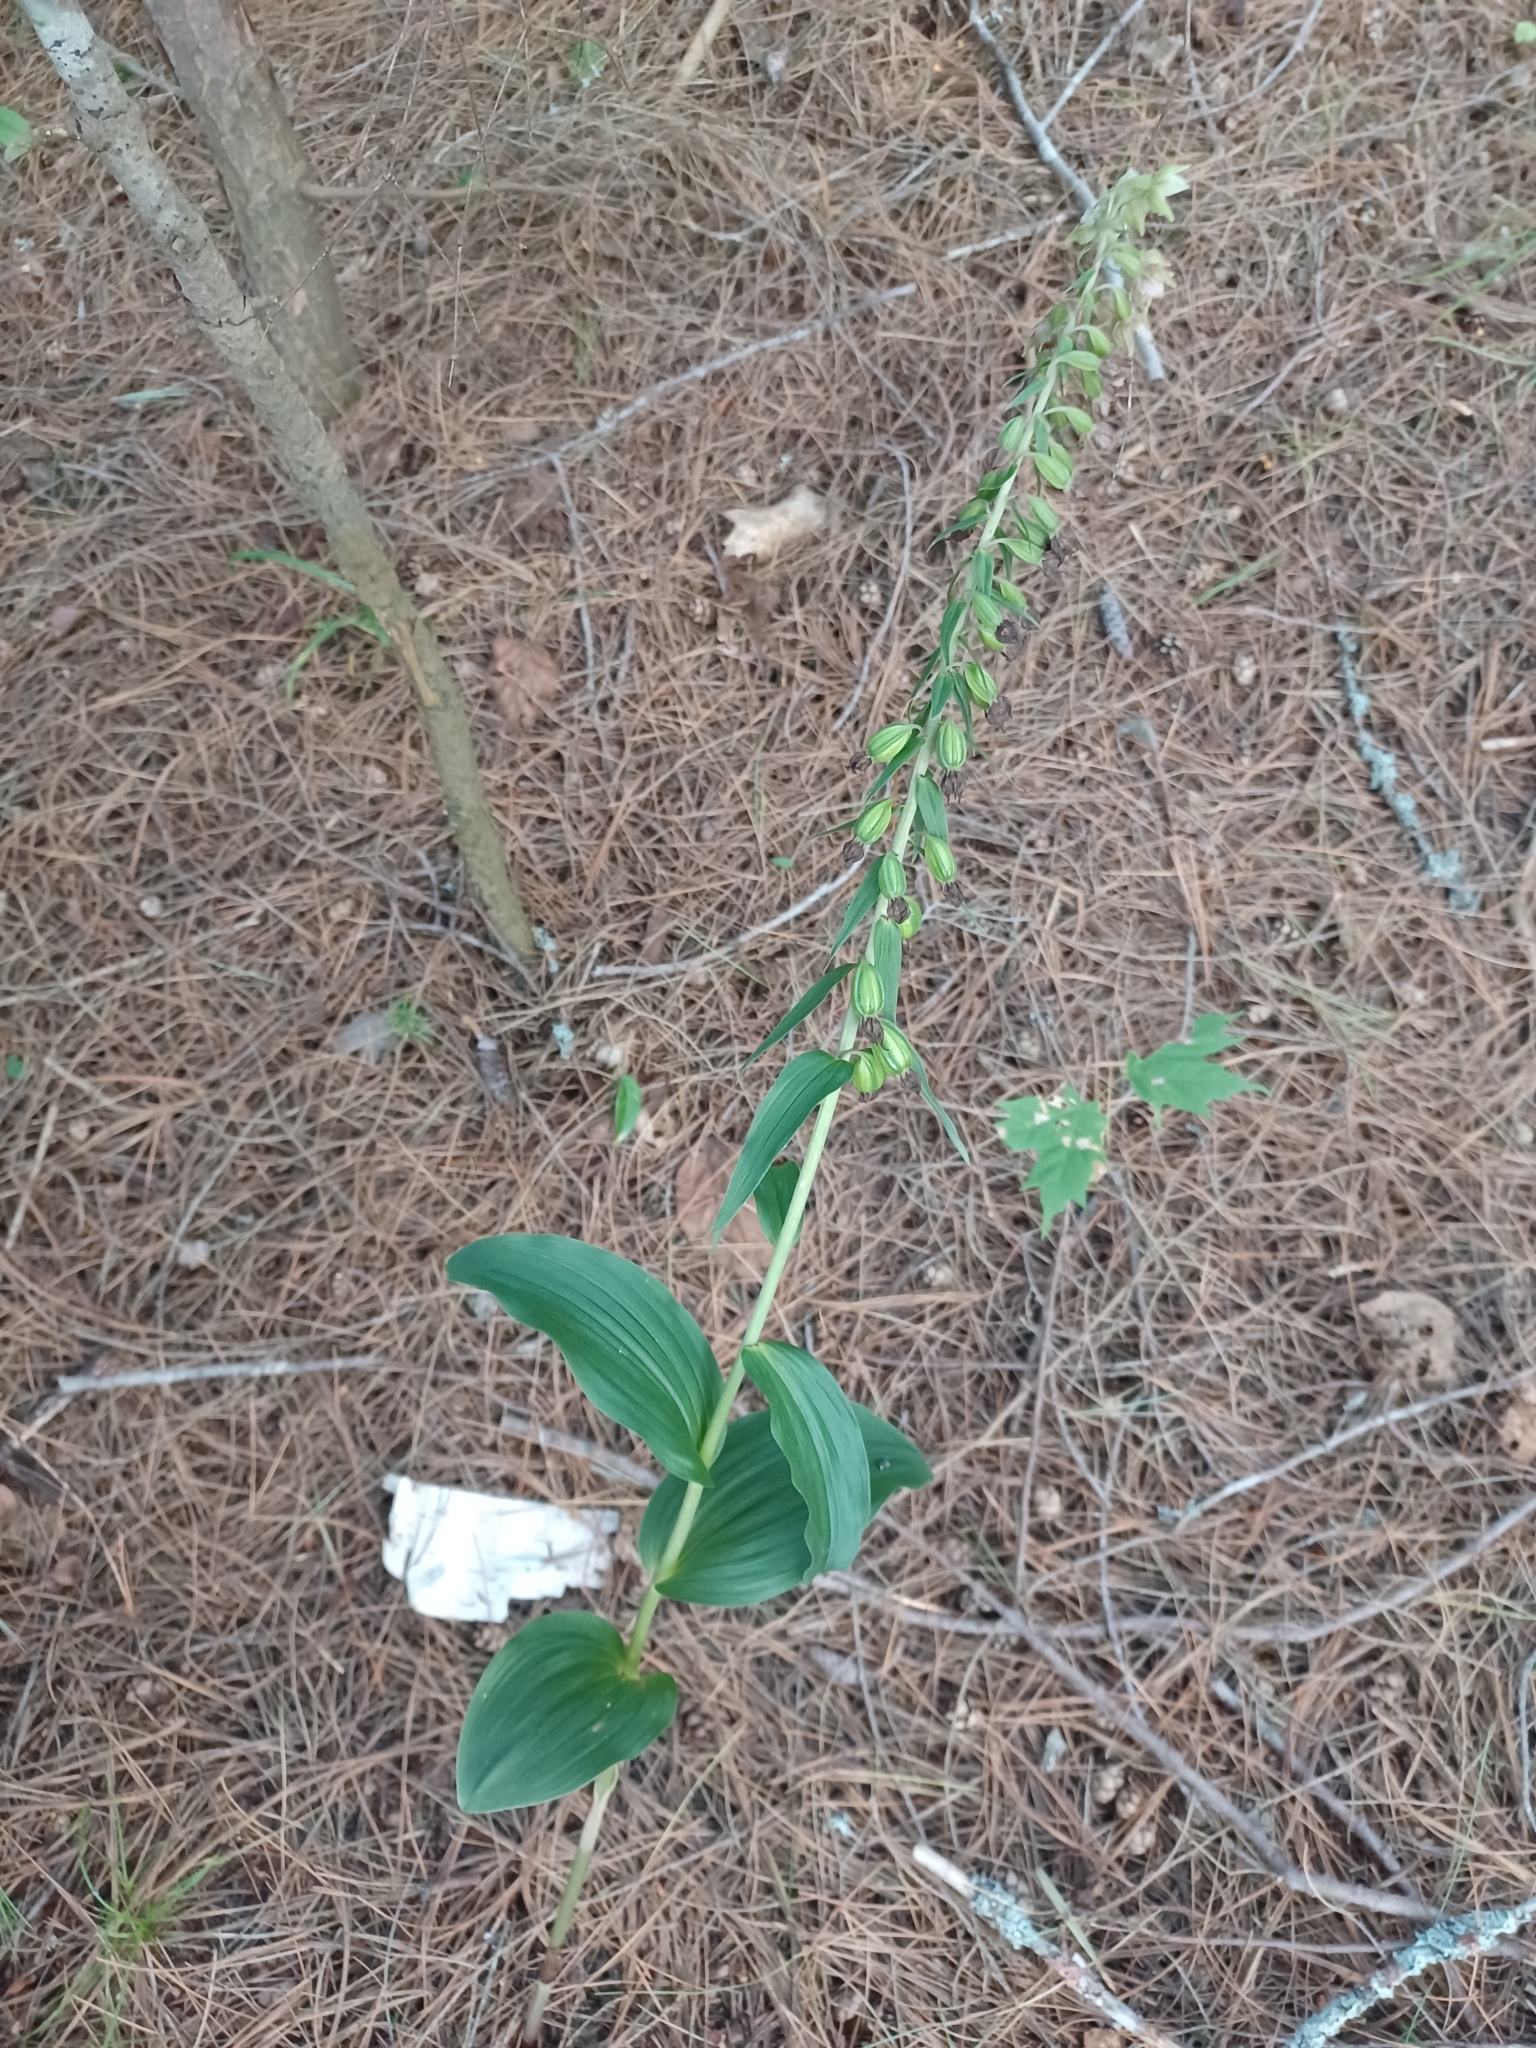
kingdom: Plantae
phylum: Tracheophyta
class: Liliopsida
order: Asparagales
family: Orchidaceae
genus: Epipactis
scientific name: Epipactis helleborine
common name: Broad-leaved helleborine
